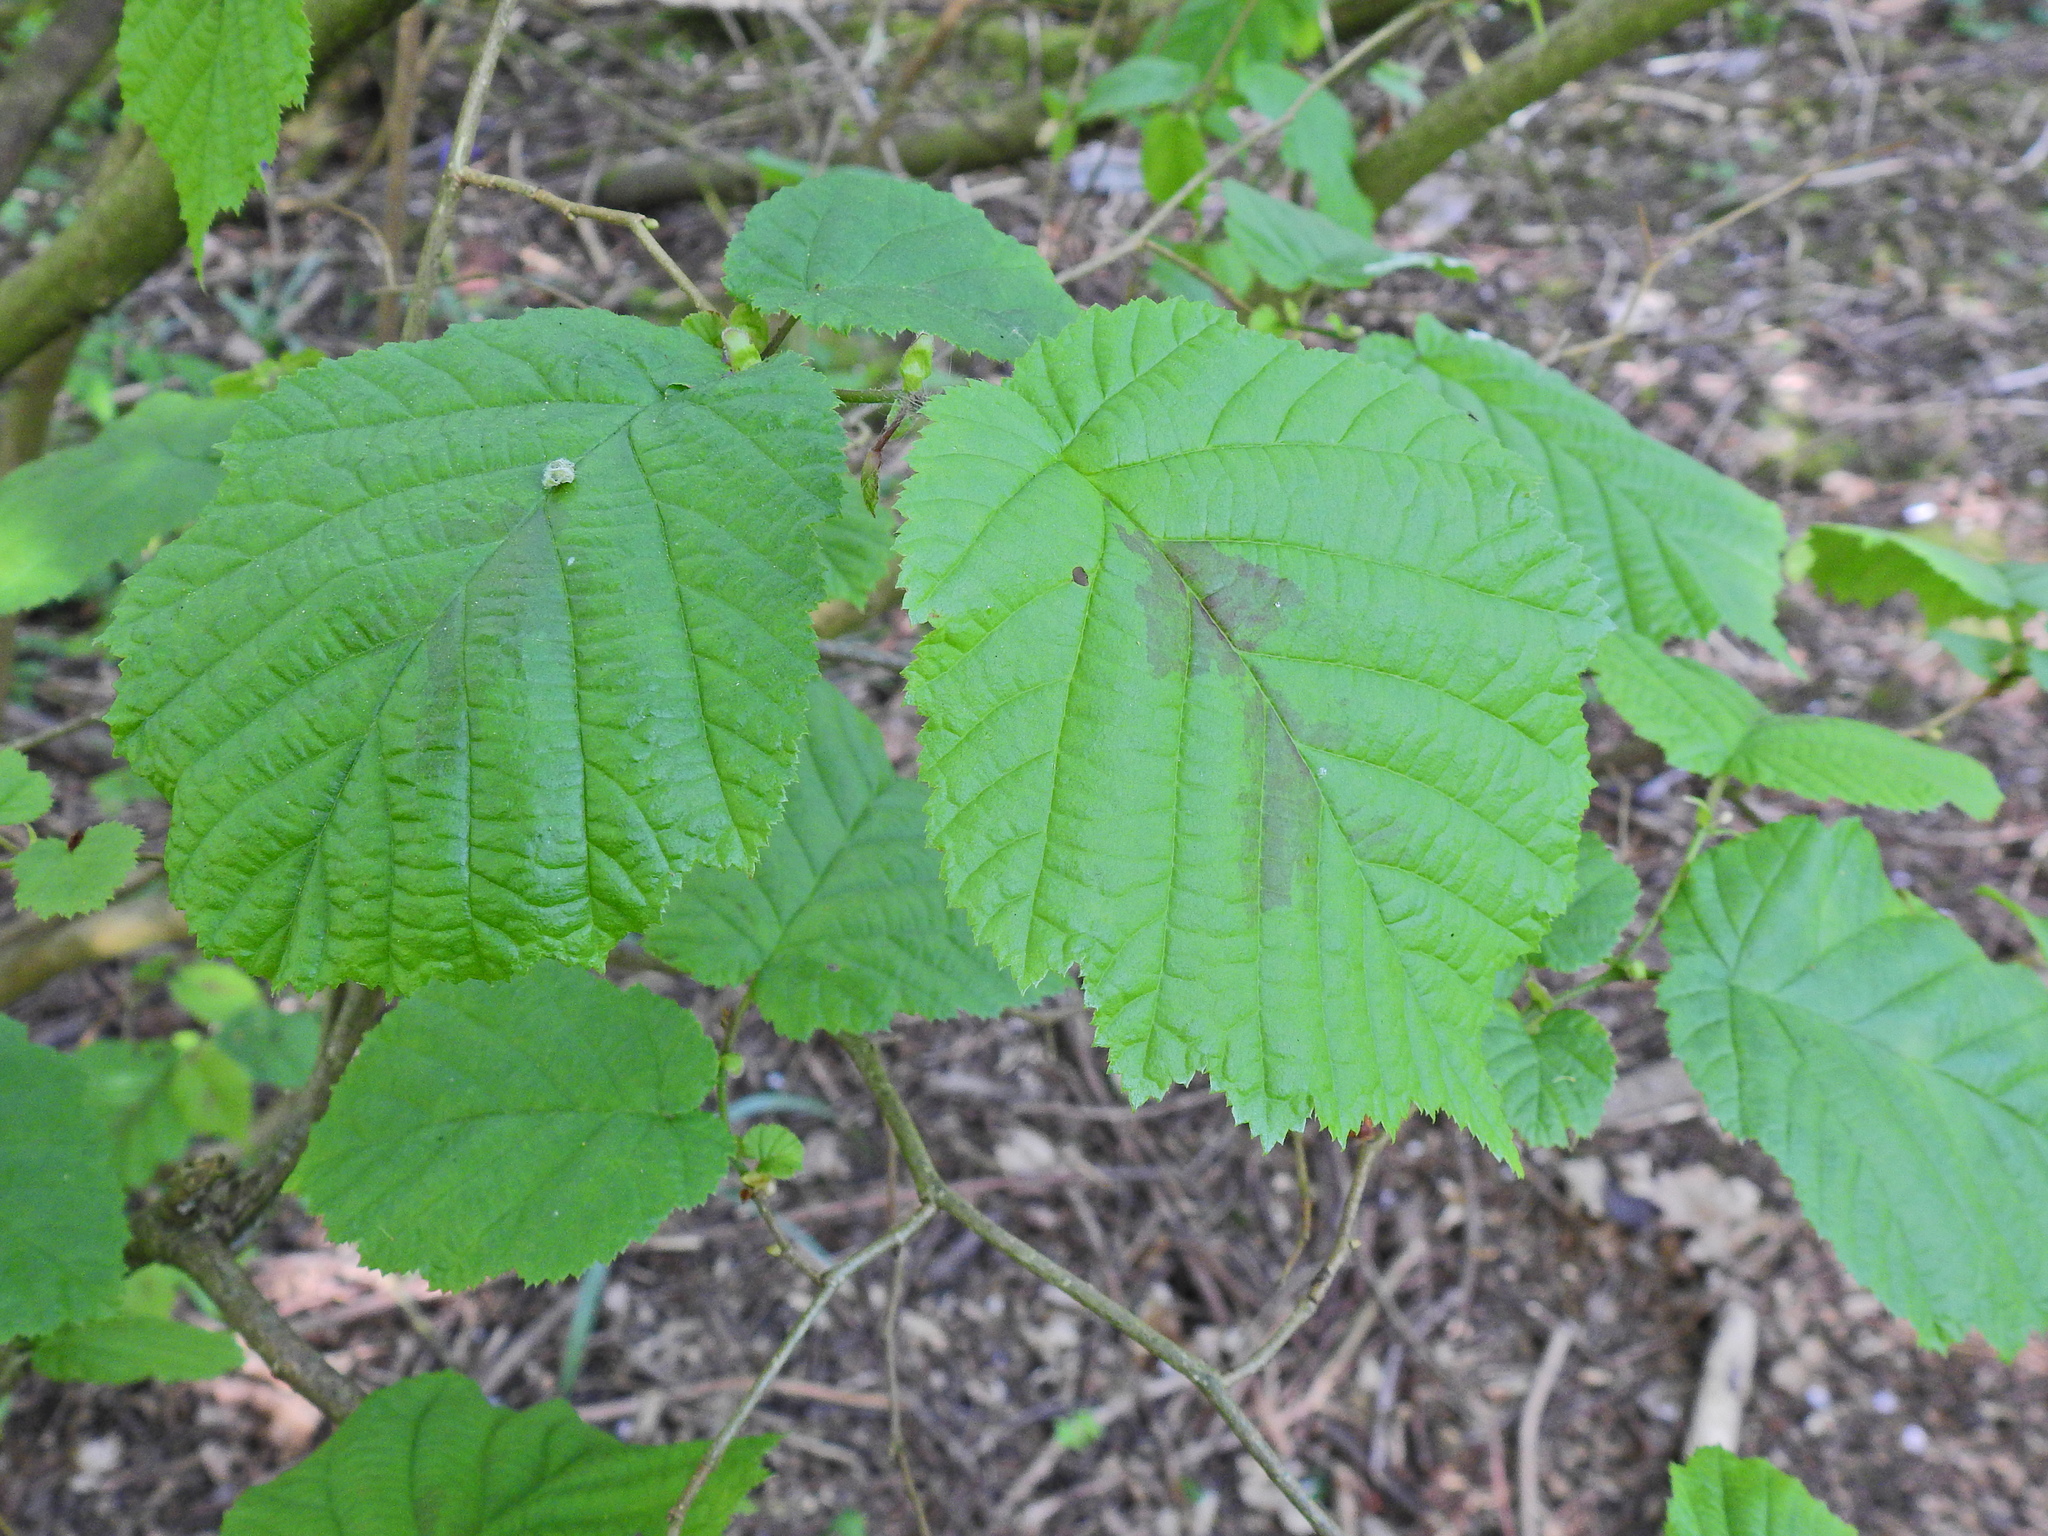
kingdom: Plantae
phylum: Tracheophyta
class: Magnoliopsida
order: Fagales
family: Betulaceae
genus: Corylus
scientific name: Corylus avellana
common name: European hazel
